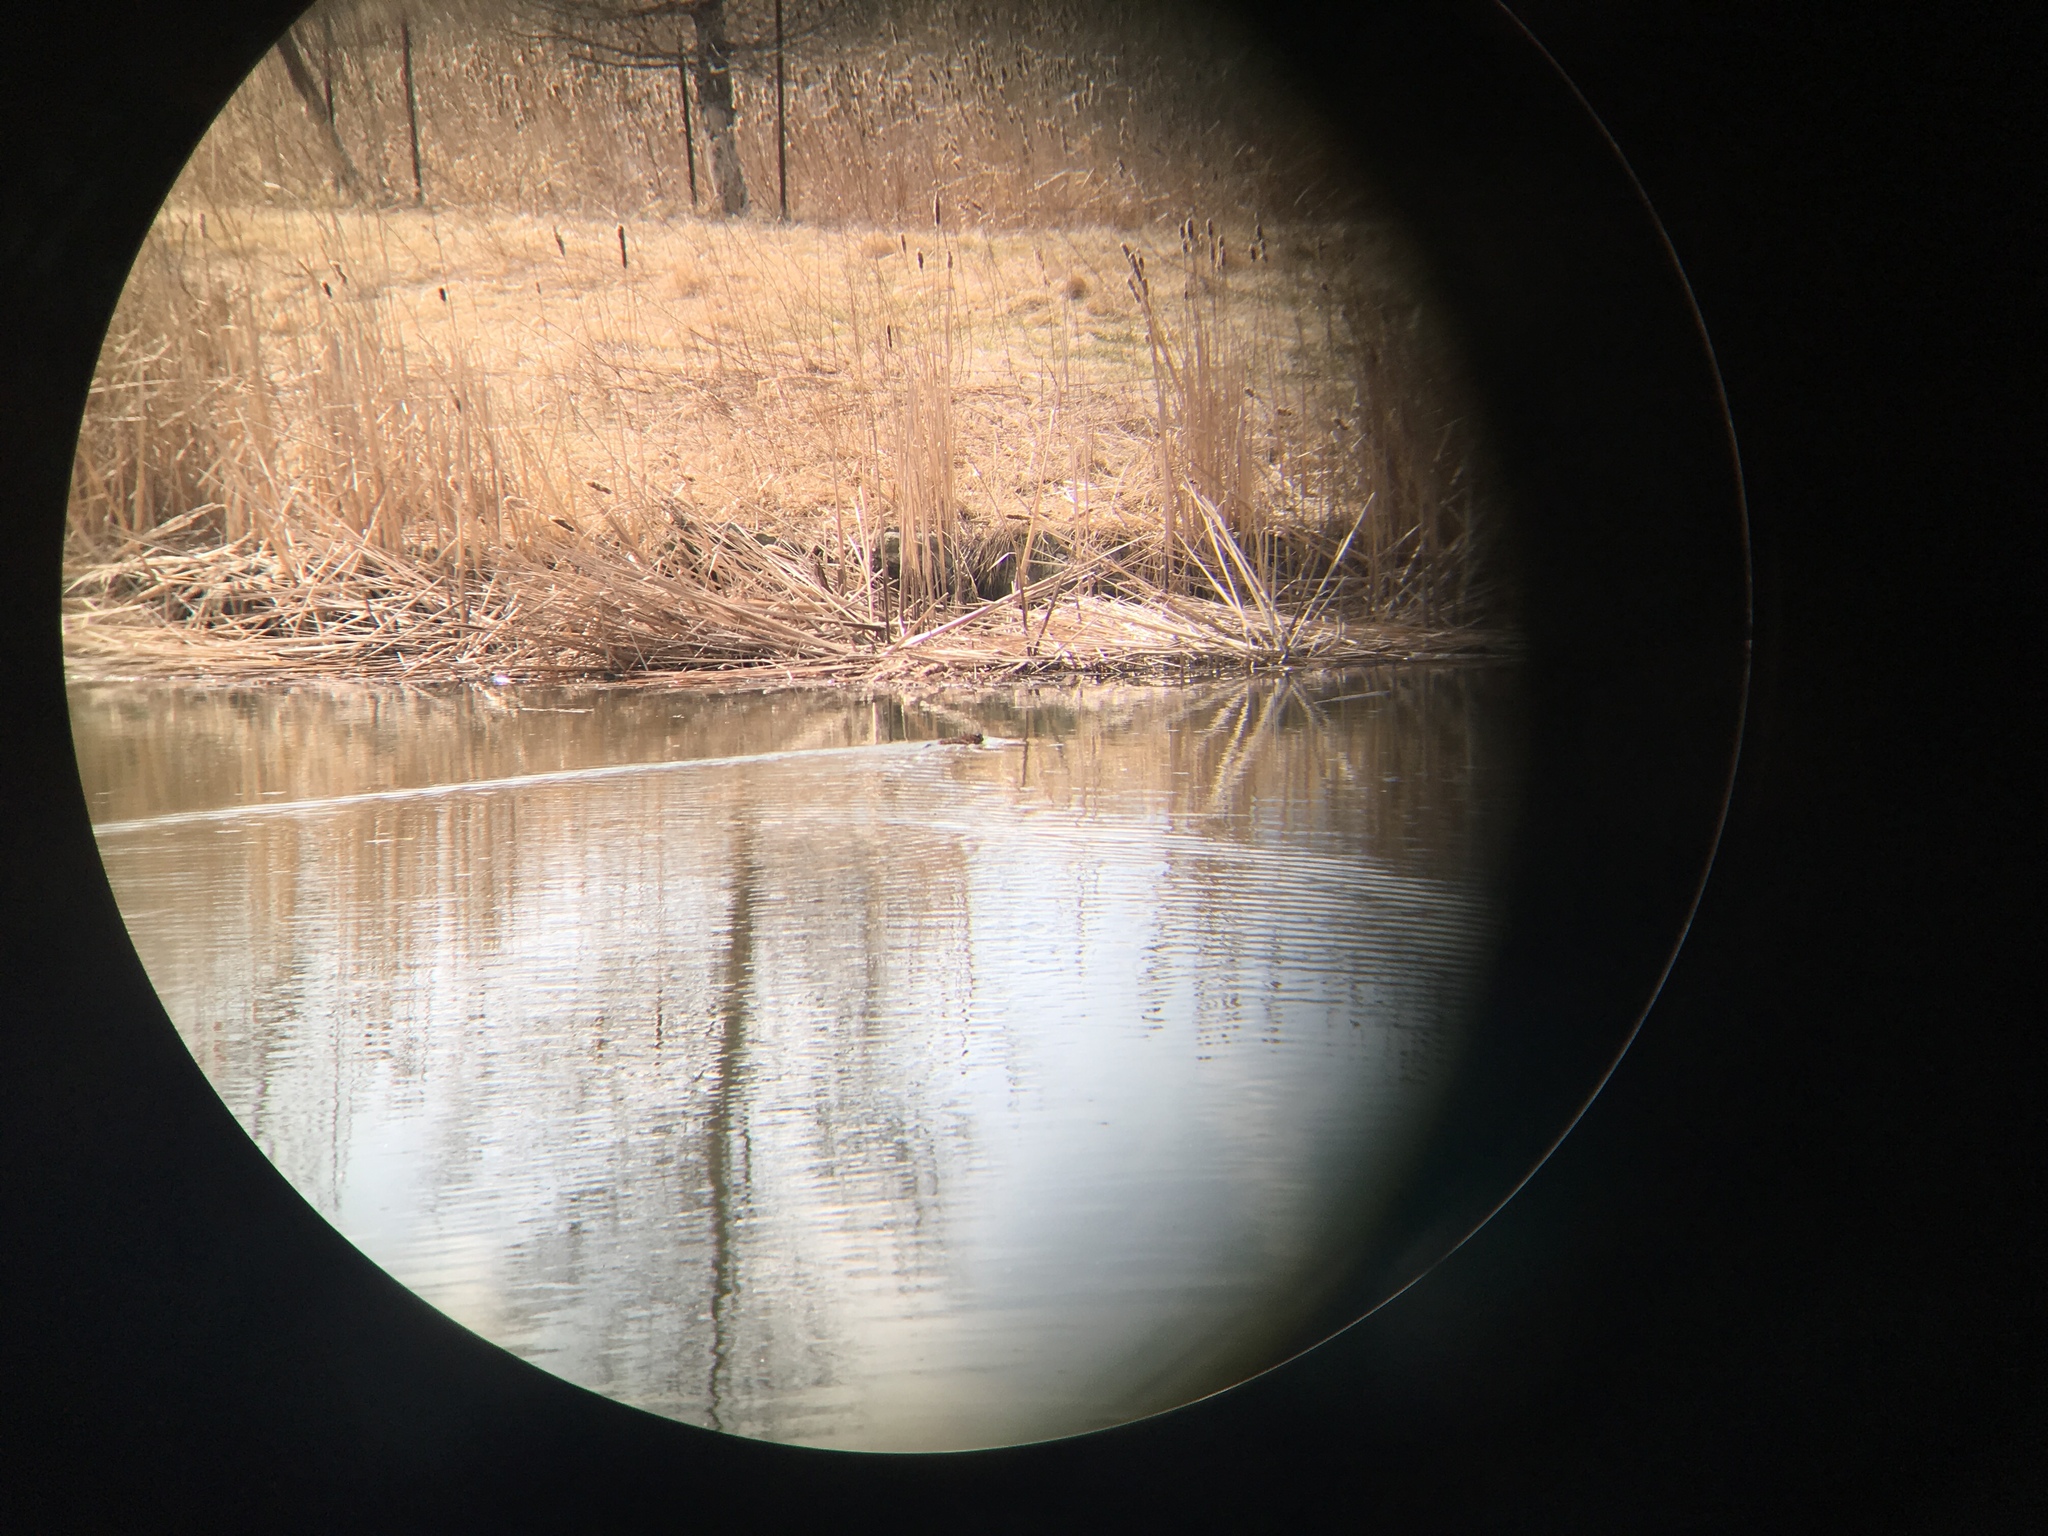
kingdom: Animalia
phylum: Chordata
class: Mammalia
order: Rodentia
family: Castoridae
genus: Castor
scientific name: Castor canadensis
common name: American beaver
